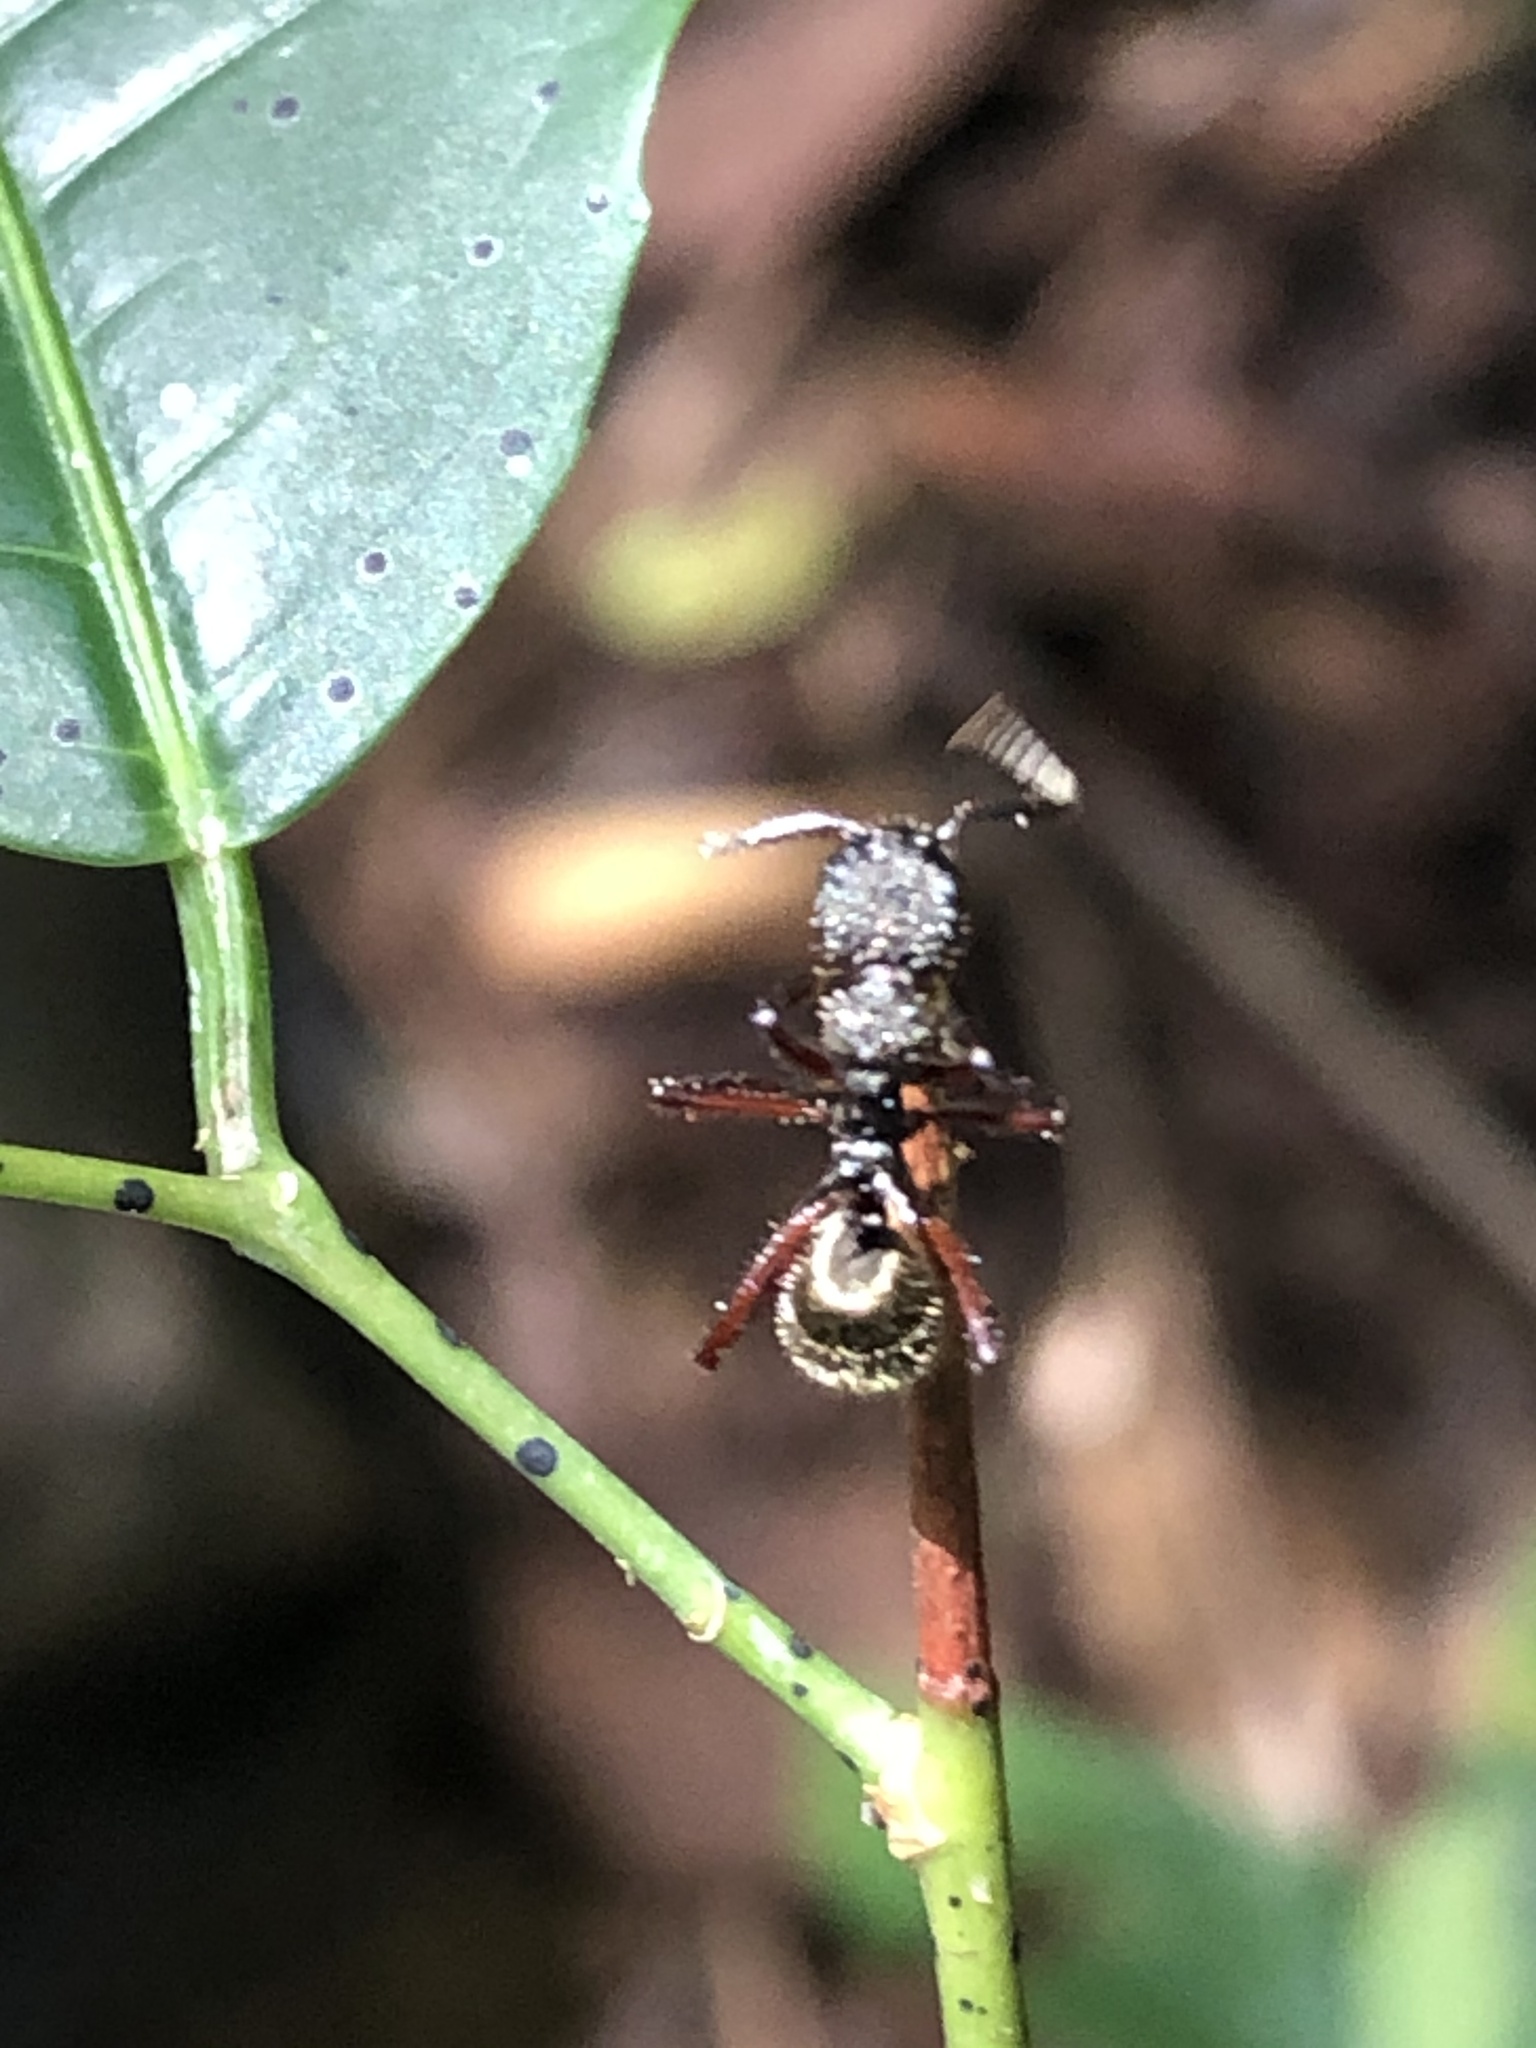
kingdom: Animalia
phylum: Arthropoda
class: Insecta
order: Hymenoptera
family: Formicidae
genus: Dolichoderus
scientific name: Dolichoderus decollatus
